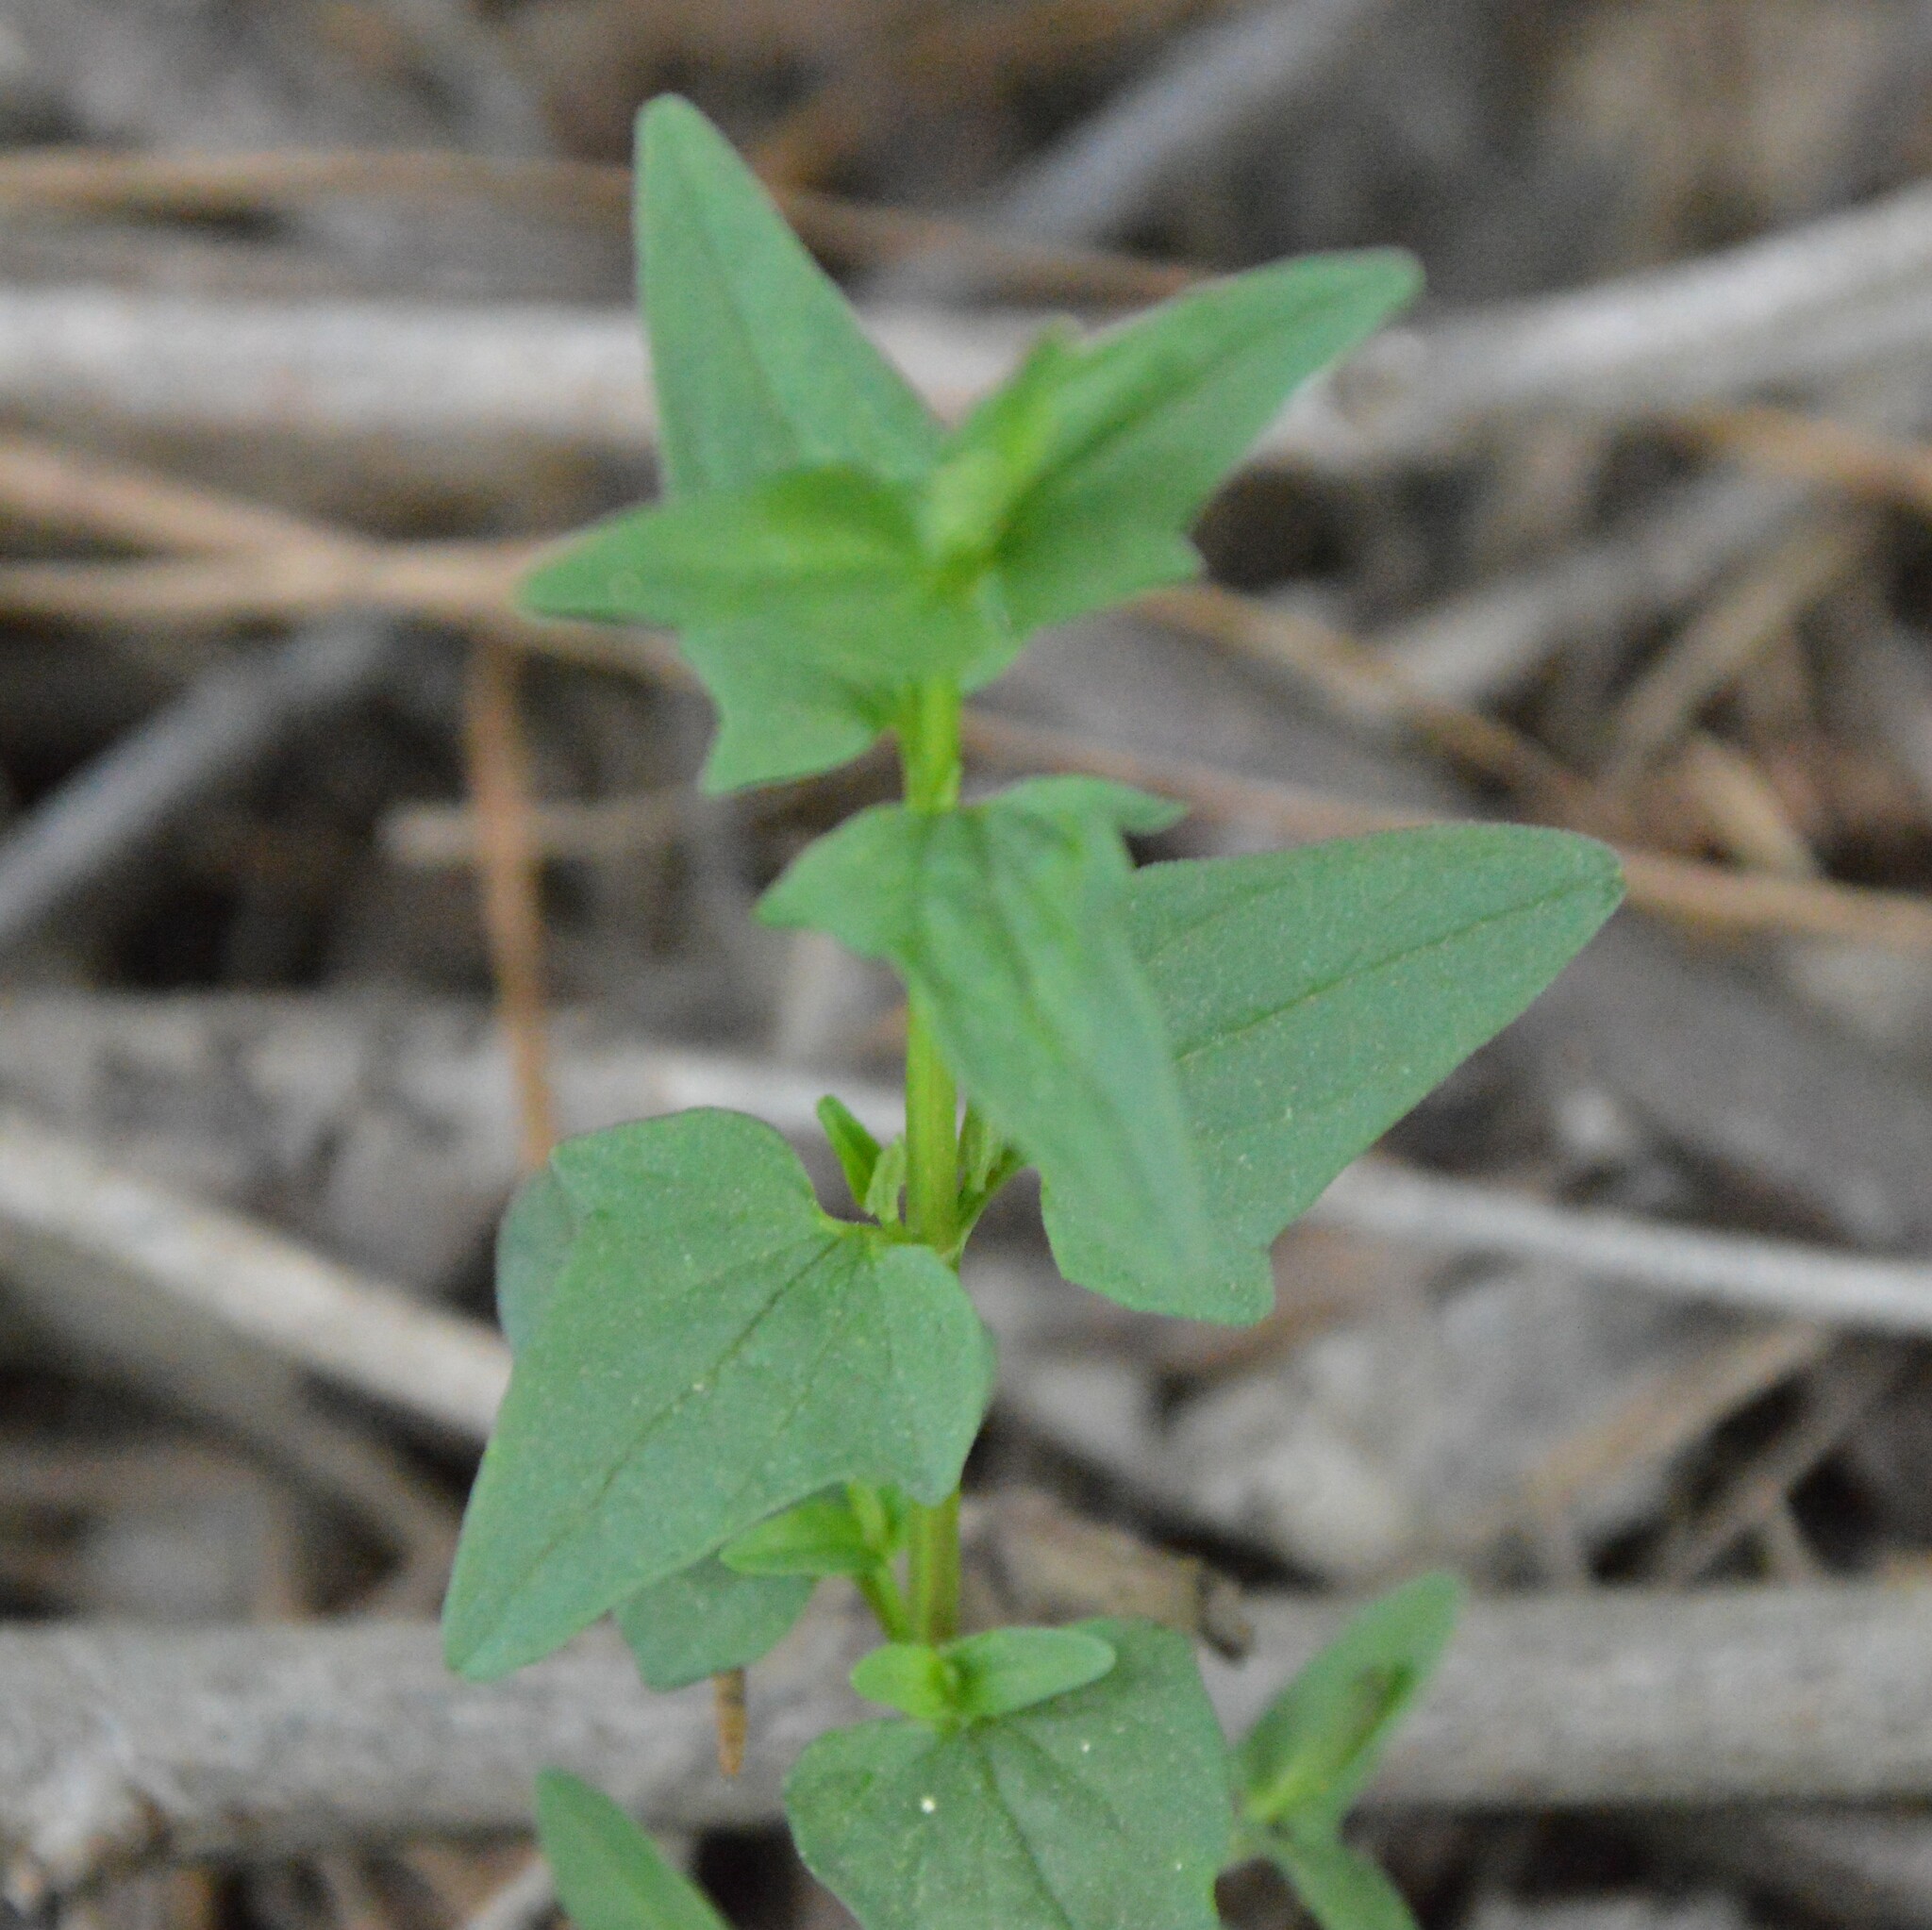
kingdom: Plantae
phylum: Tracheophyta
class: Magnoliopsida
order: Lamiales
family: Lamiaceae
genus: Scutellaria
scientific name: Scutellaria racemosa
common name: South american skullcap
